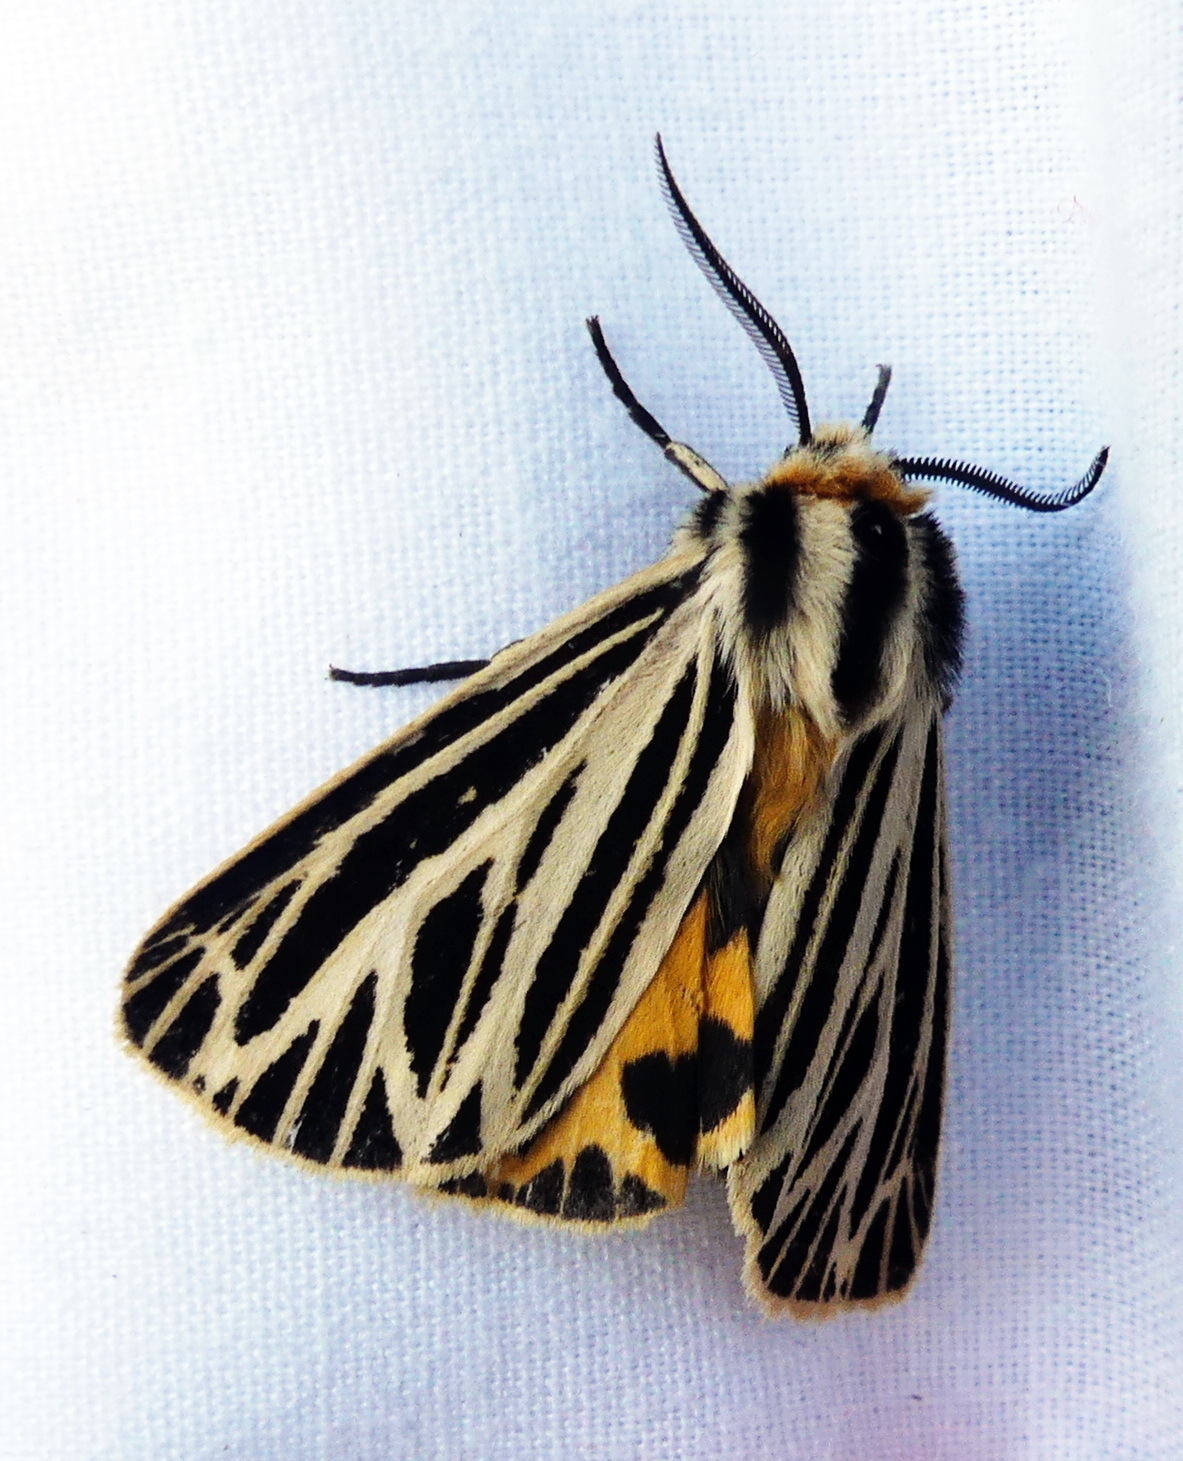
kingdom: Animalia
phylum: Arthropoda
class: Insecta
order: Lepidoptera
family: Erebidae
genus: Grammia
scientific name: Grammia virguncula
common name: Little tiger moth
